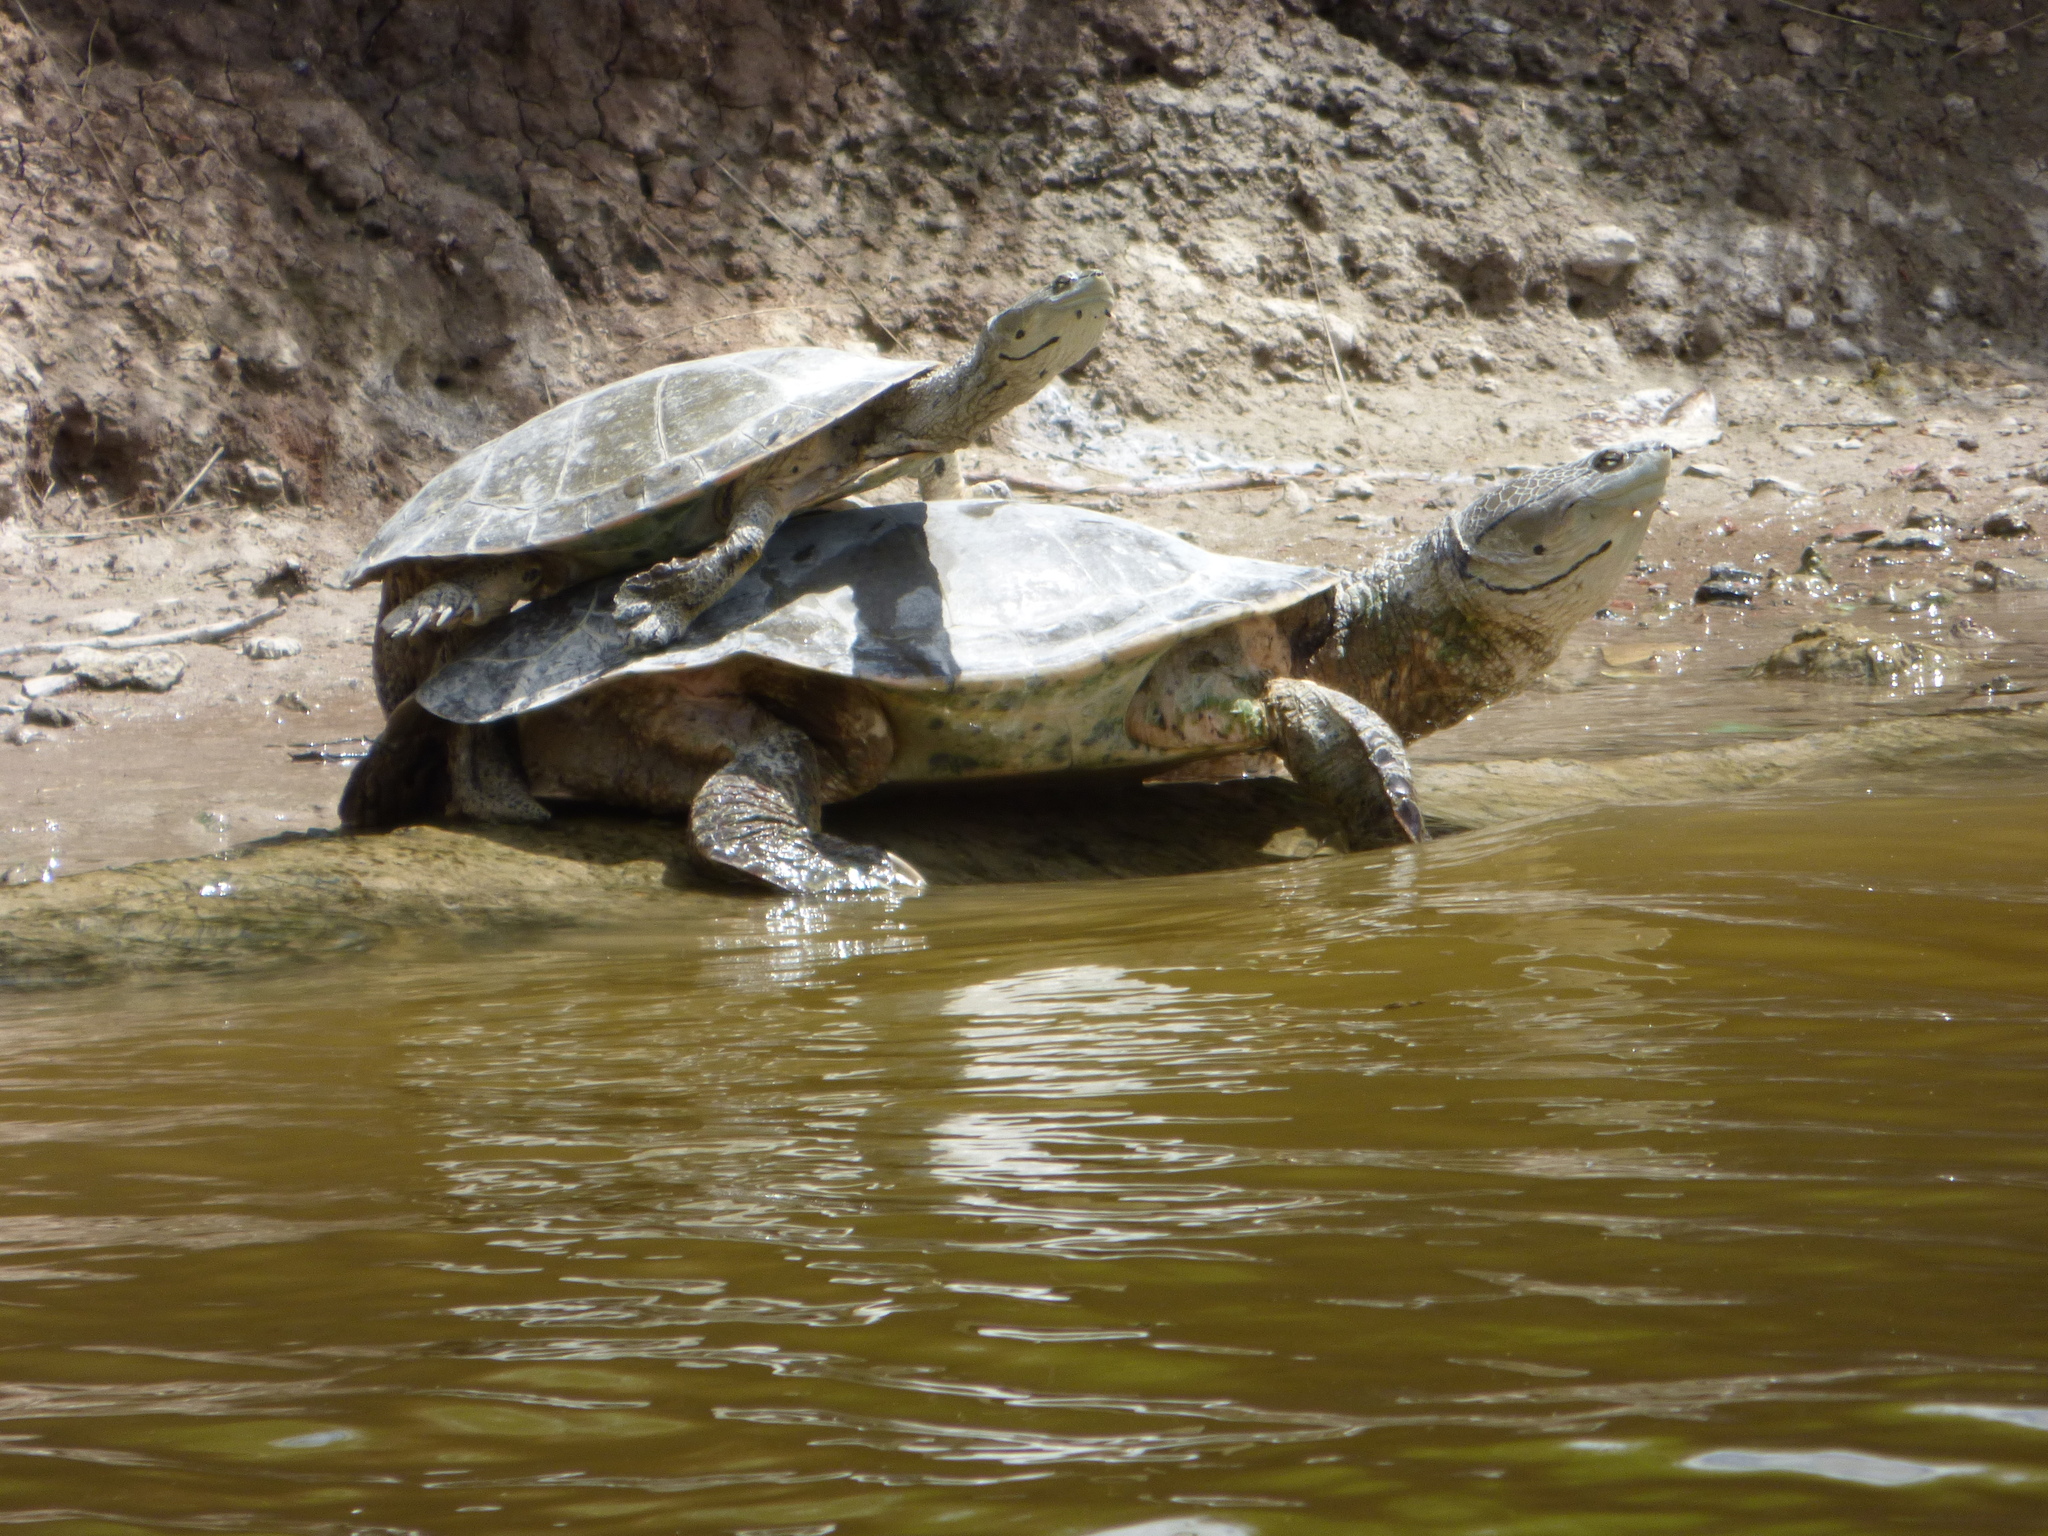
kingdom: Animalia
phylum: Chordata
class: Testudines
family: Chelidae
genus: Phrynops
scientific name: Phrynops hilarii
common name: Side-necked turtle of saint hillaire
